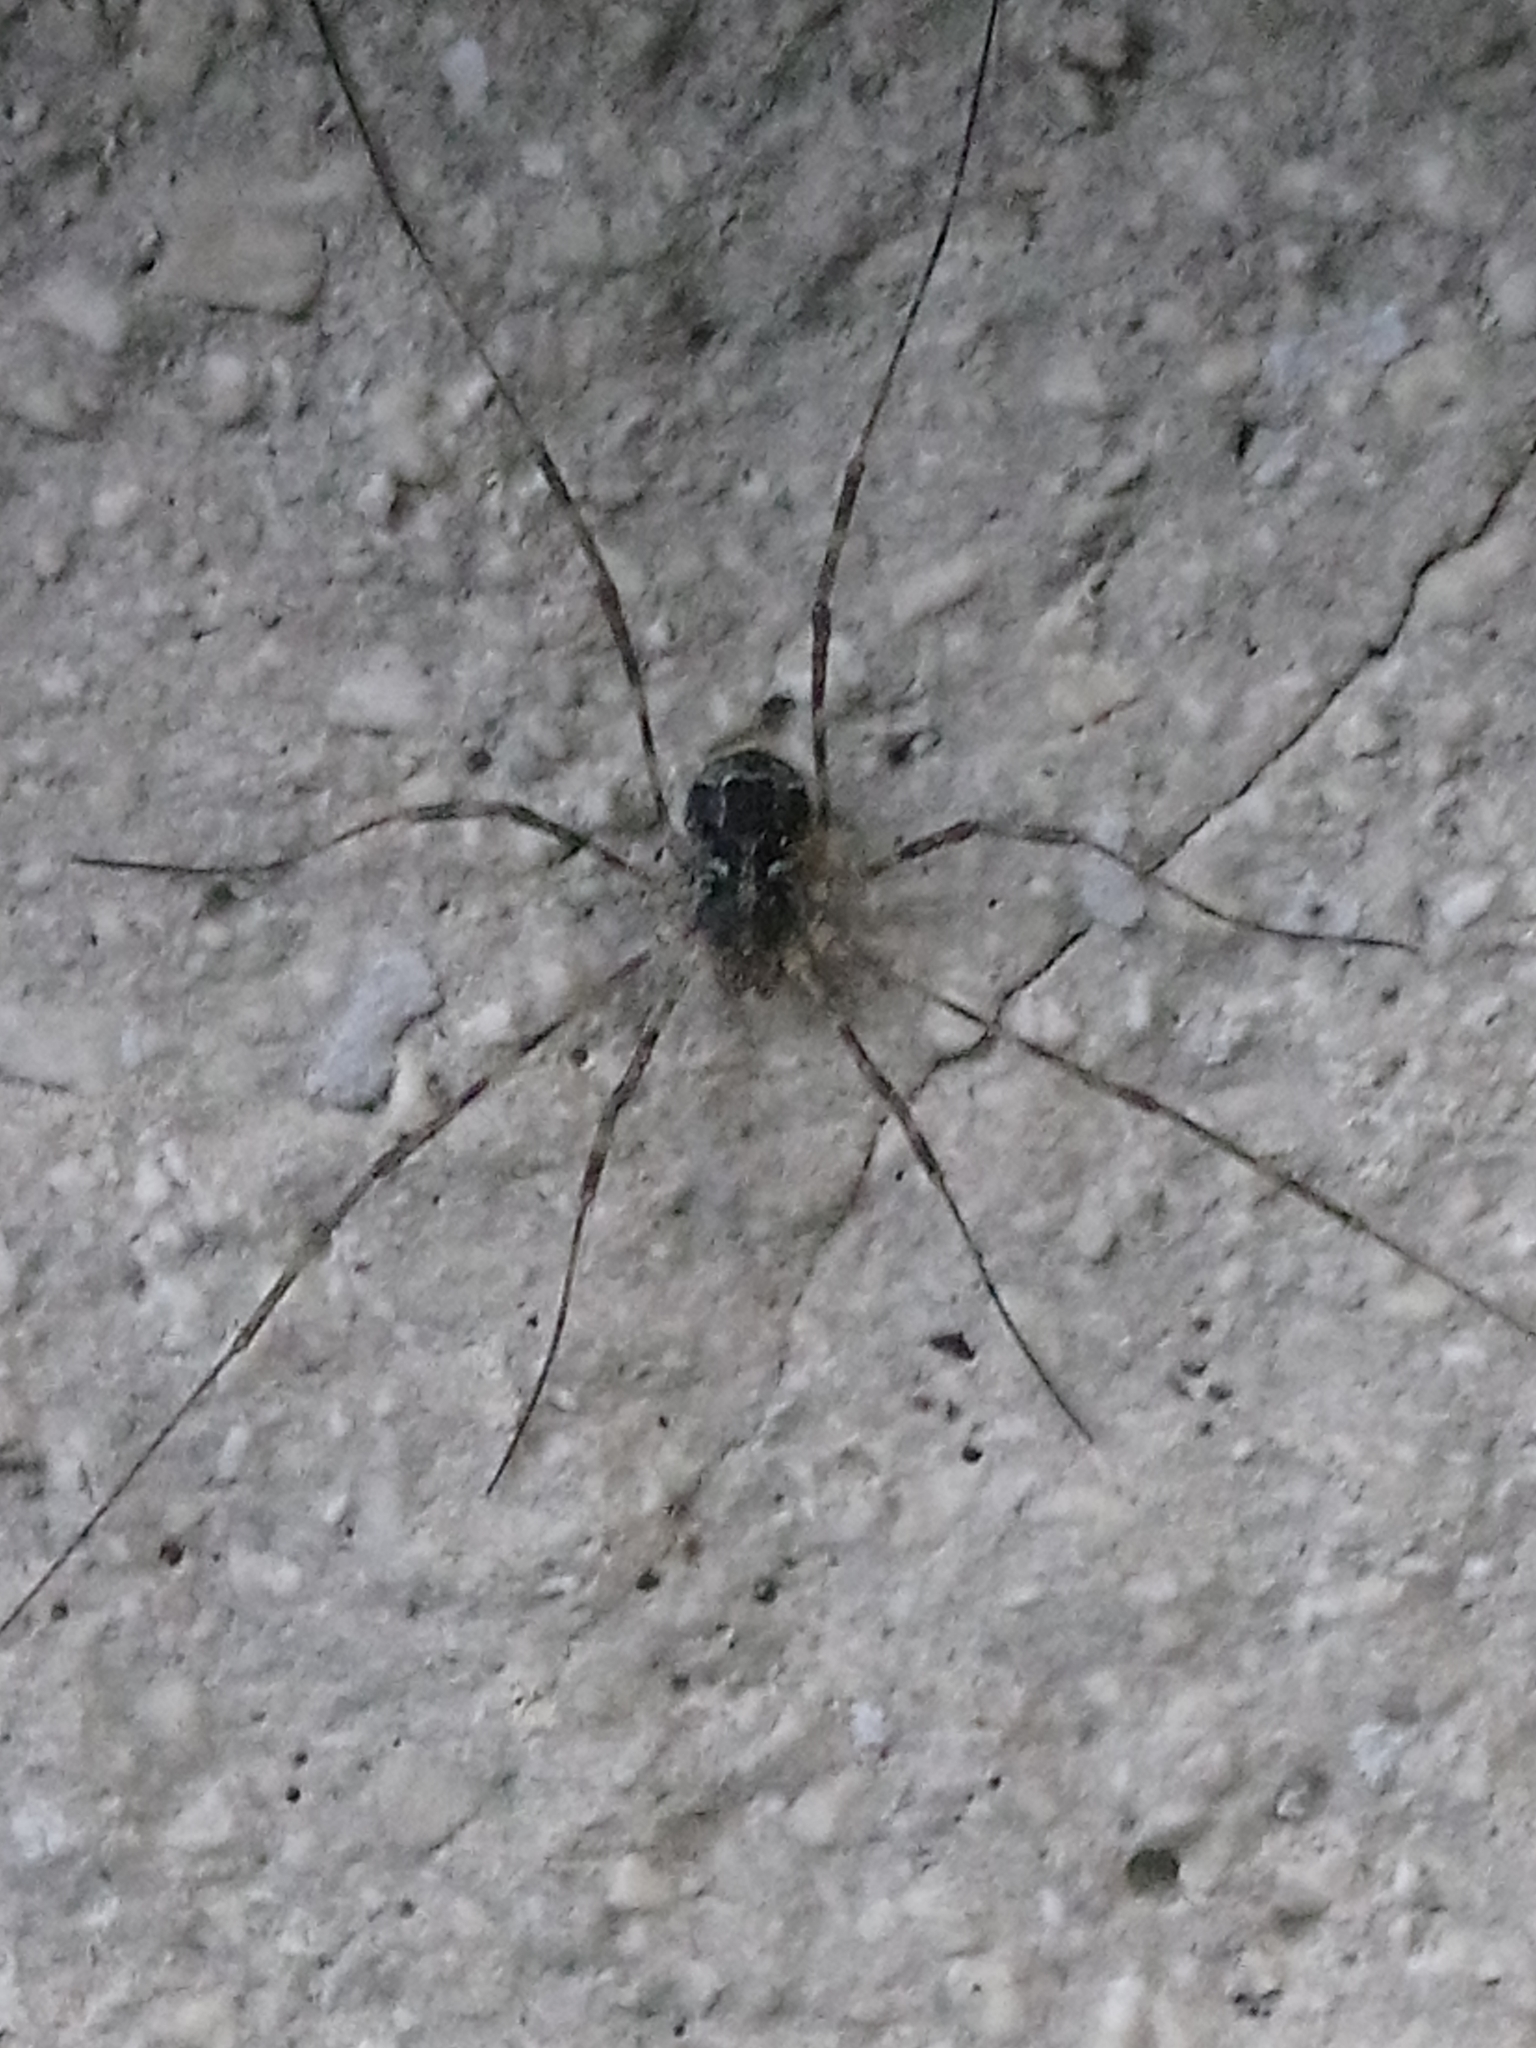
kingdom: Animalia
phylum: Arthropoda
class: Arachnida
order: Opiliones
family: Phalangiidae
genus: Lacinius
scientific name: Lacinius dentiger
